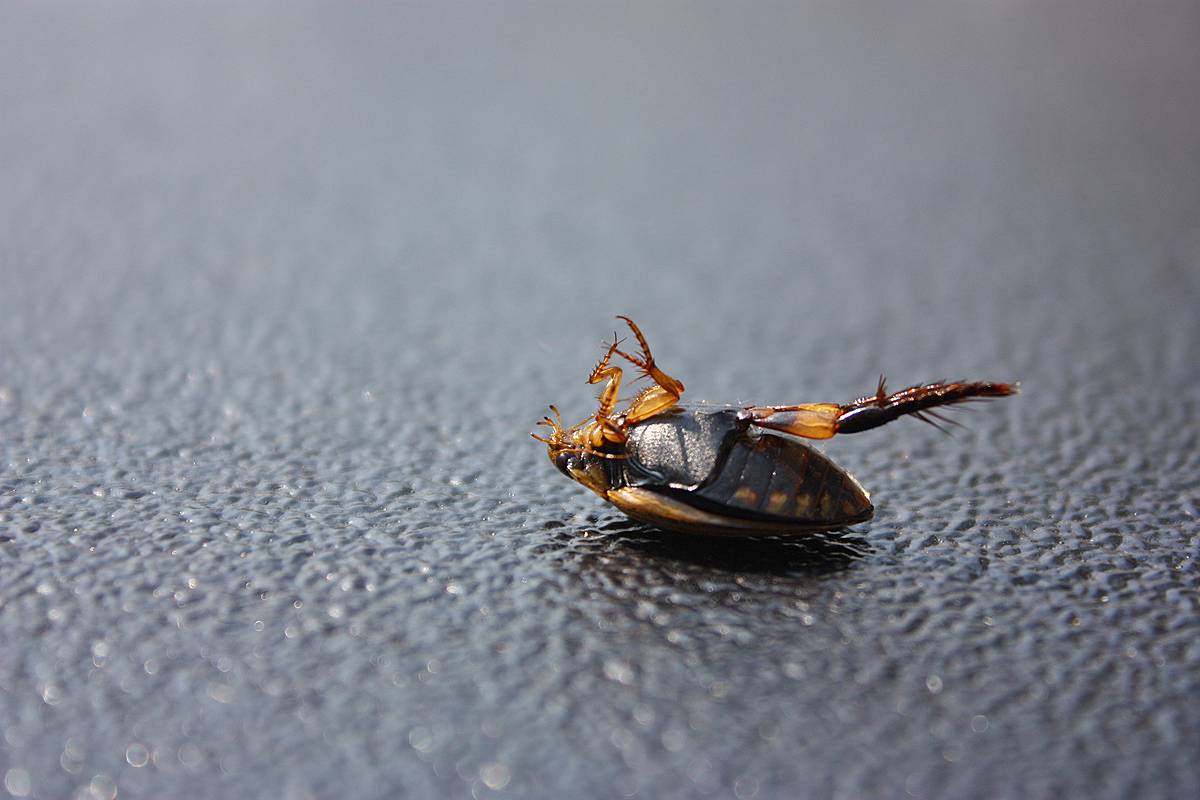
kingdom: Animalia
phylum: Arthropoda
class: Insecta
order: Coleoptera
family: Dytiscidae
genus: Acilius
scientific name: Acilius sulcatus
